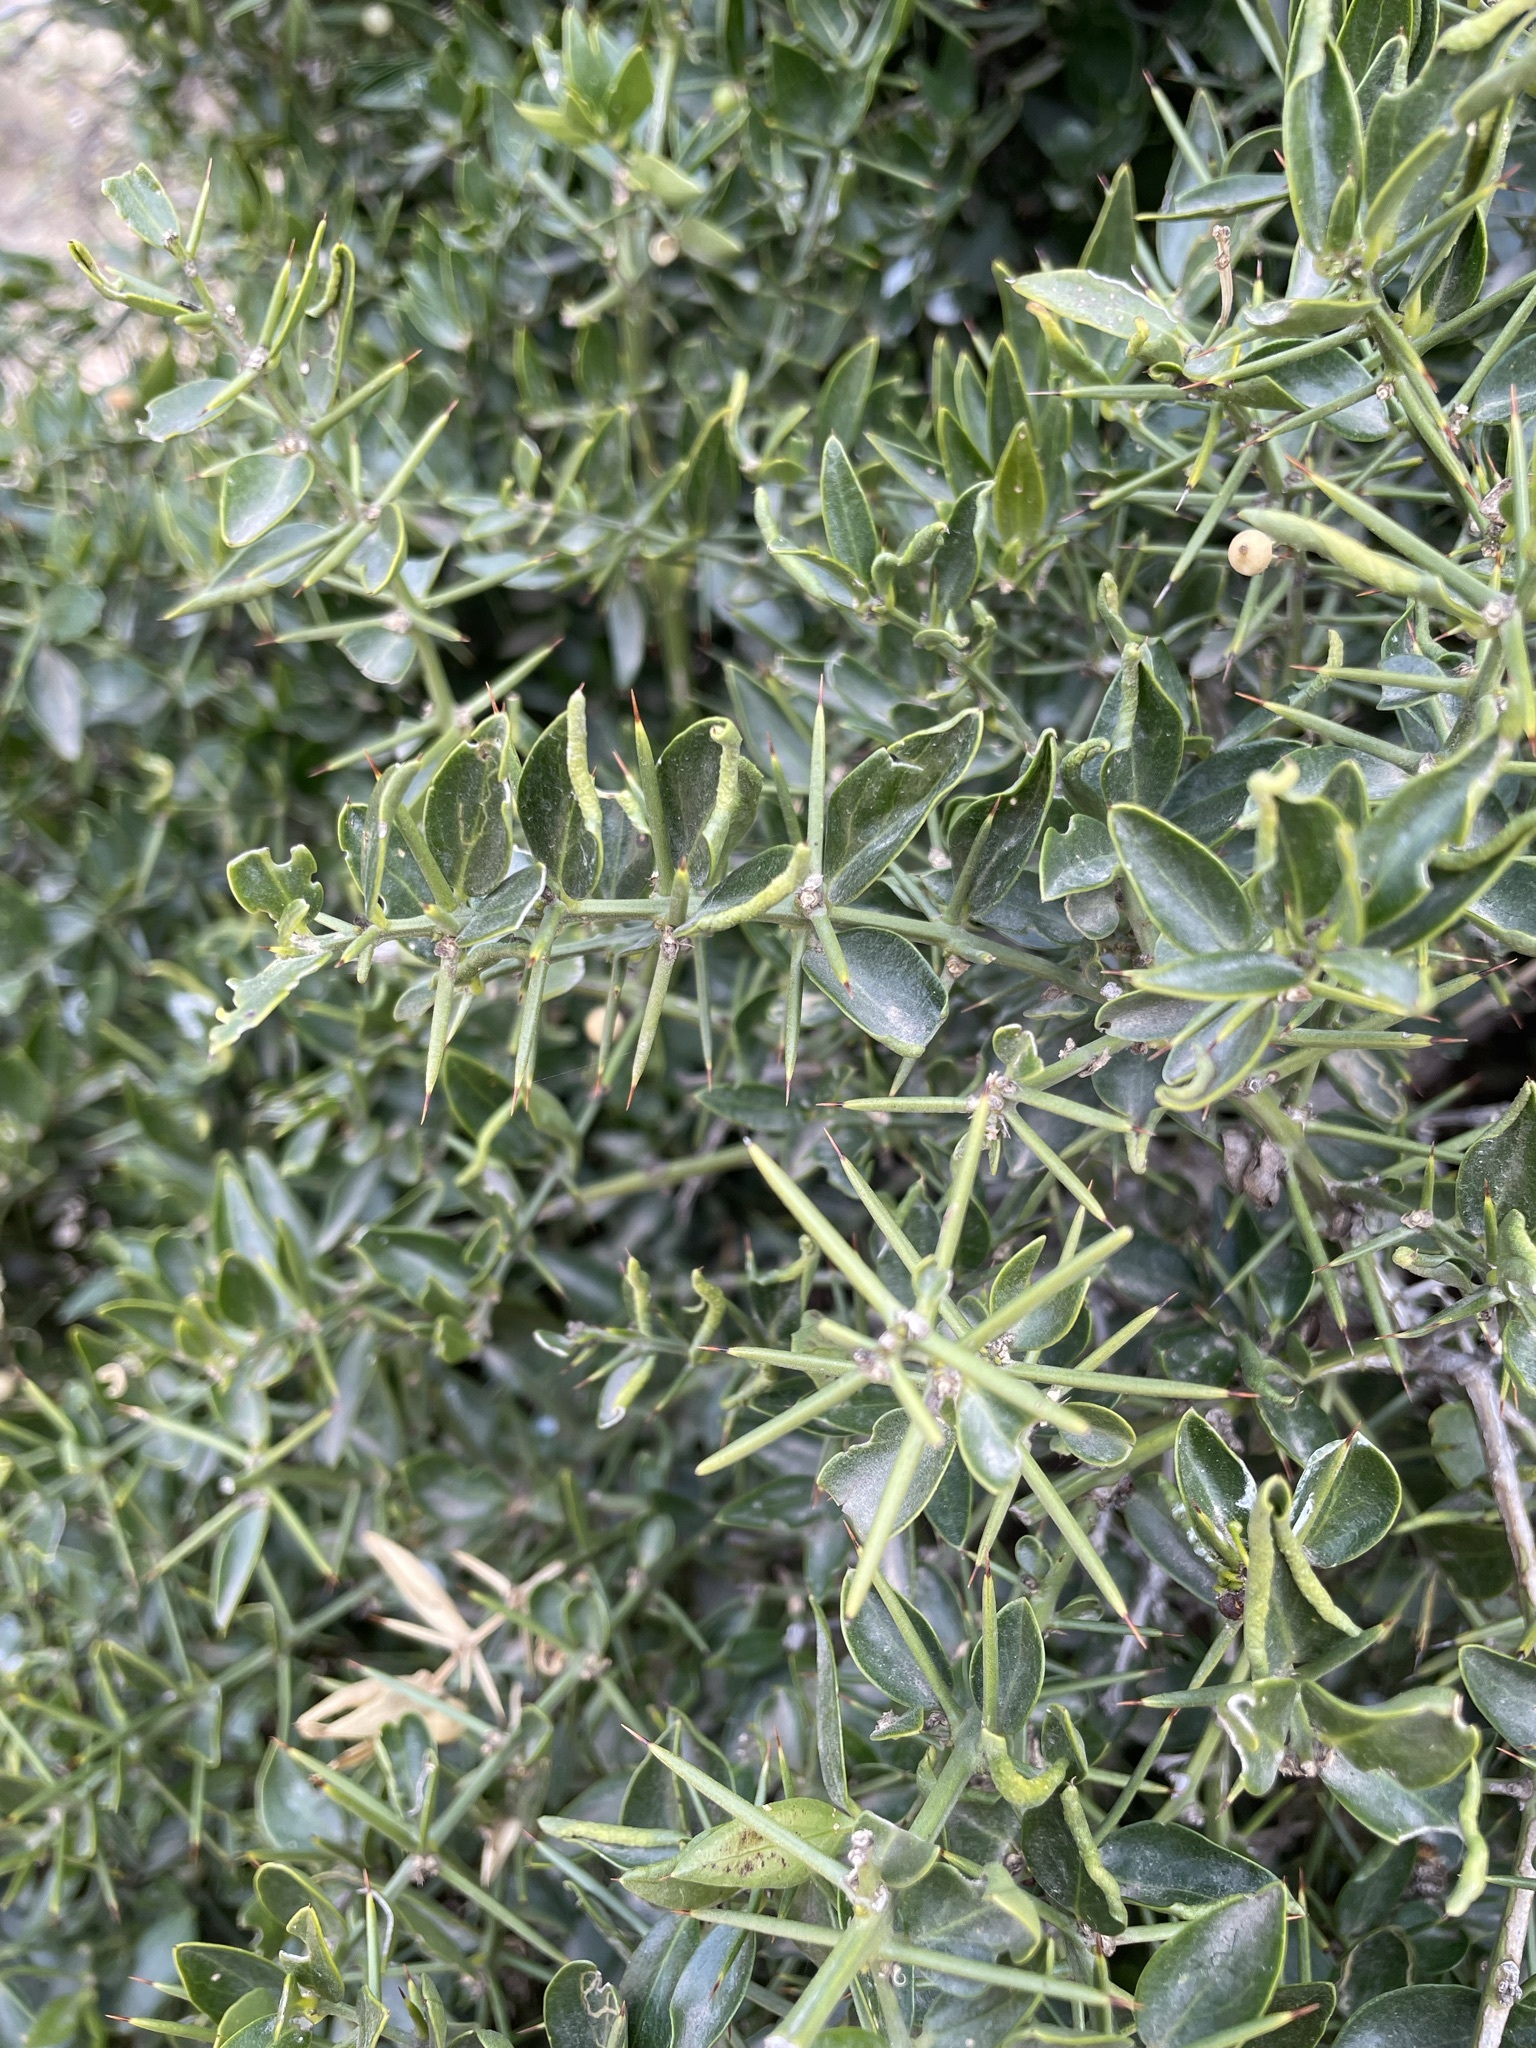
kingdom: Plantae
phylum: Tracheophyta
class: Magnoliopsida
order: Brassicales
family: Salvadoraceae
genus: Azima
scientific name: Azima tetracantha
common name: Needle bush
